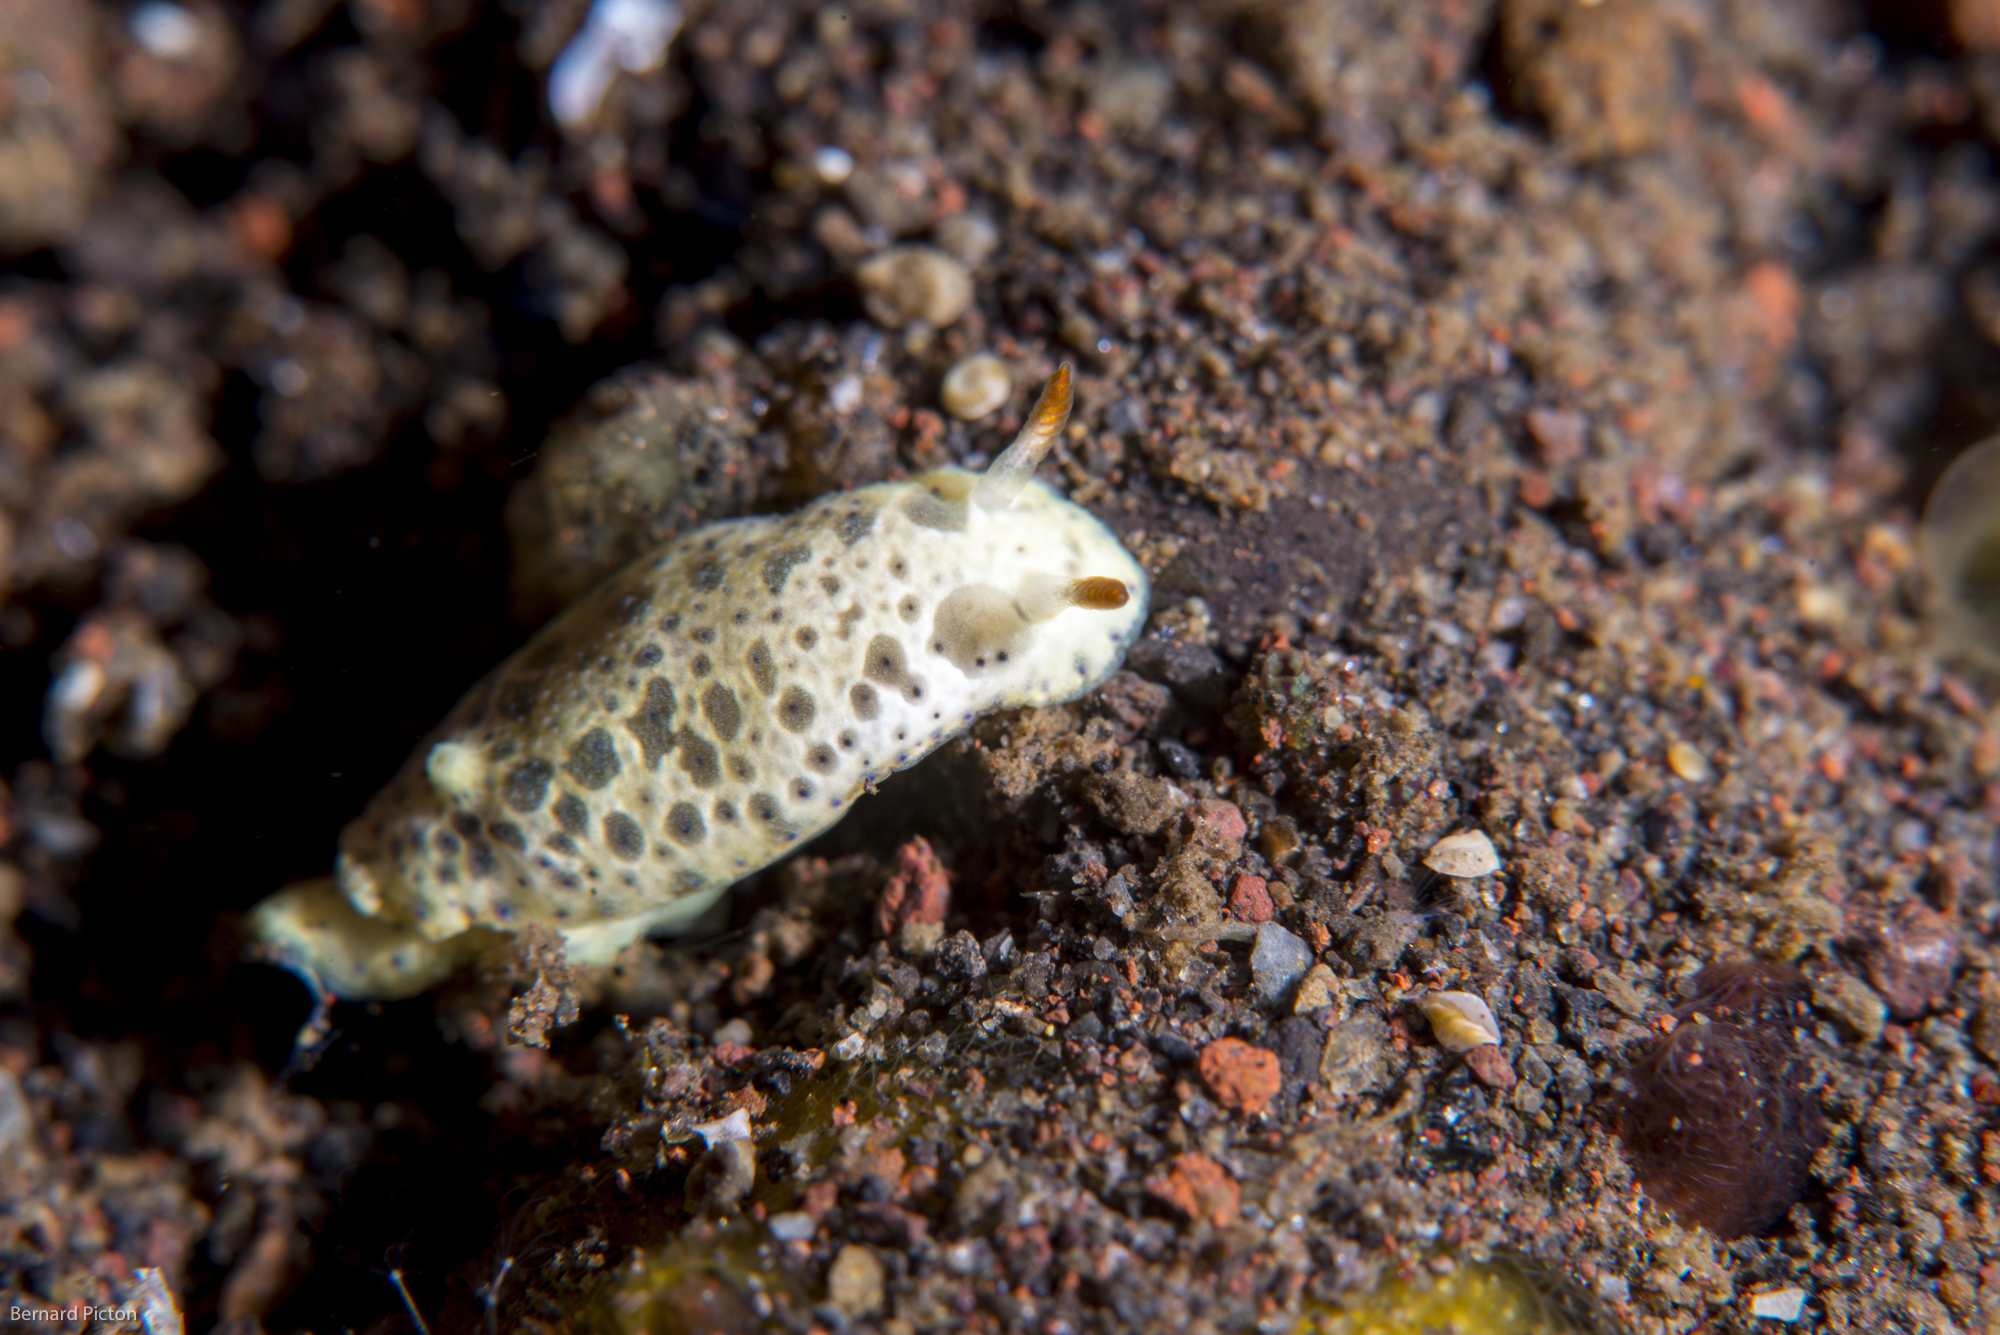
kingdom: Animalia
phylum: Mollusca
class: Gastropoda
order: Nudibranchia
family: Chromodorididae
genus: Hypselodoris
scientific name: Hypselodoris lacuna
